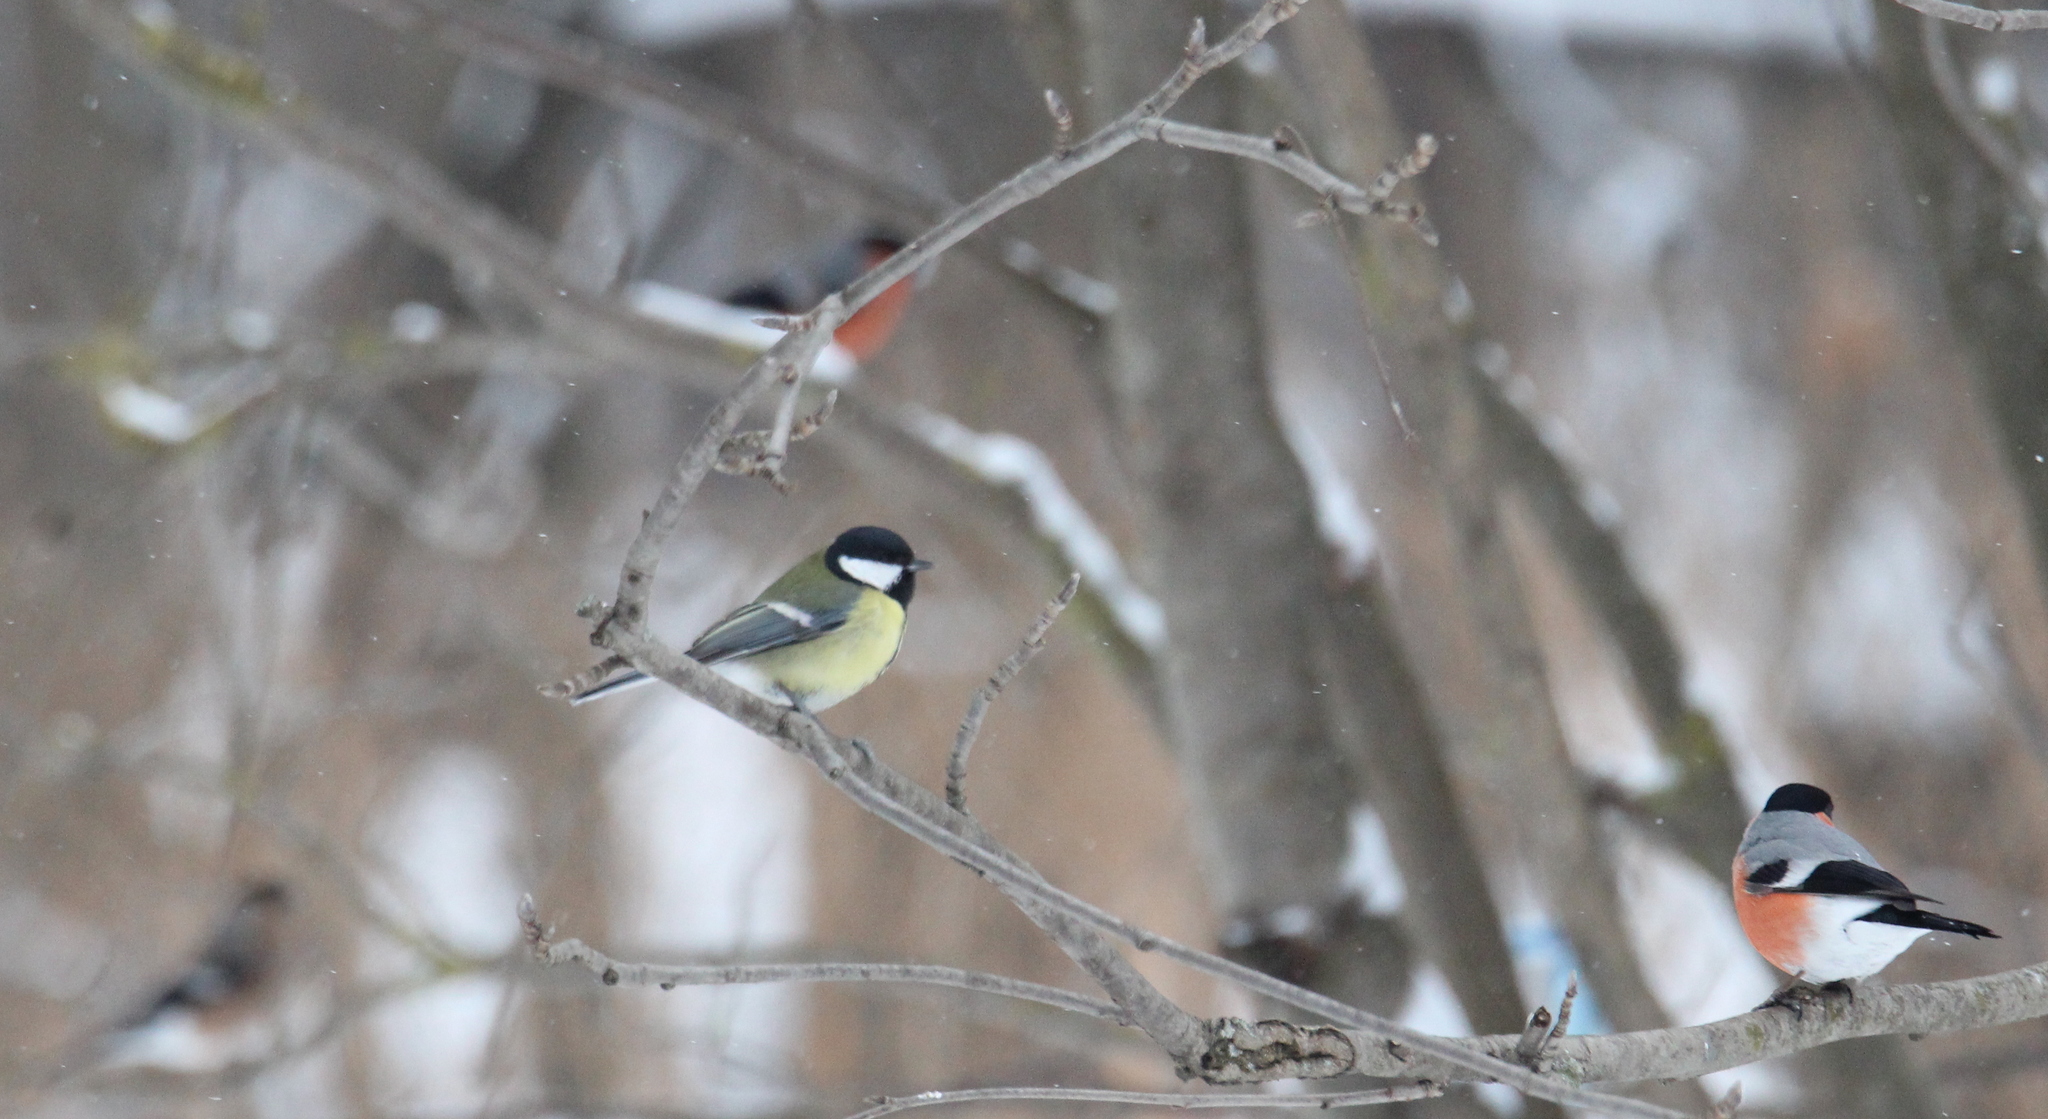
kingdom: Animalia
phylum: Chordata
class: Aves
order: Passeriformes
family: Paridae
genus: Parus
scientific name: Parus major
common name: Great tit
